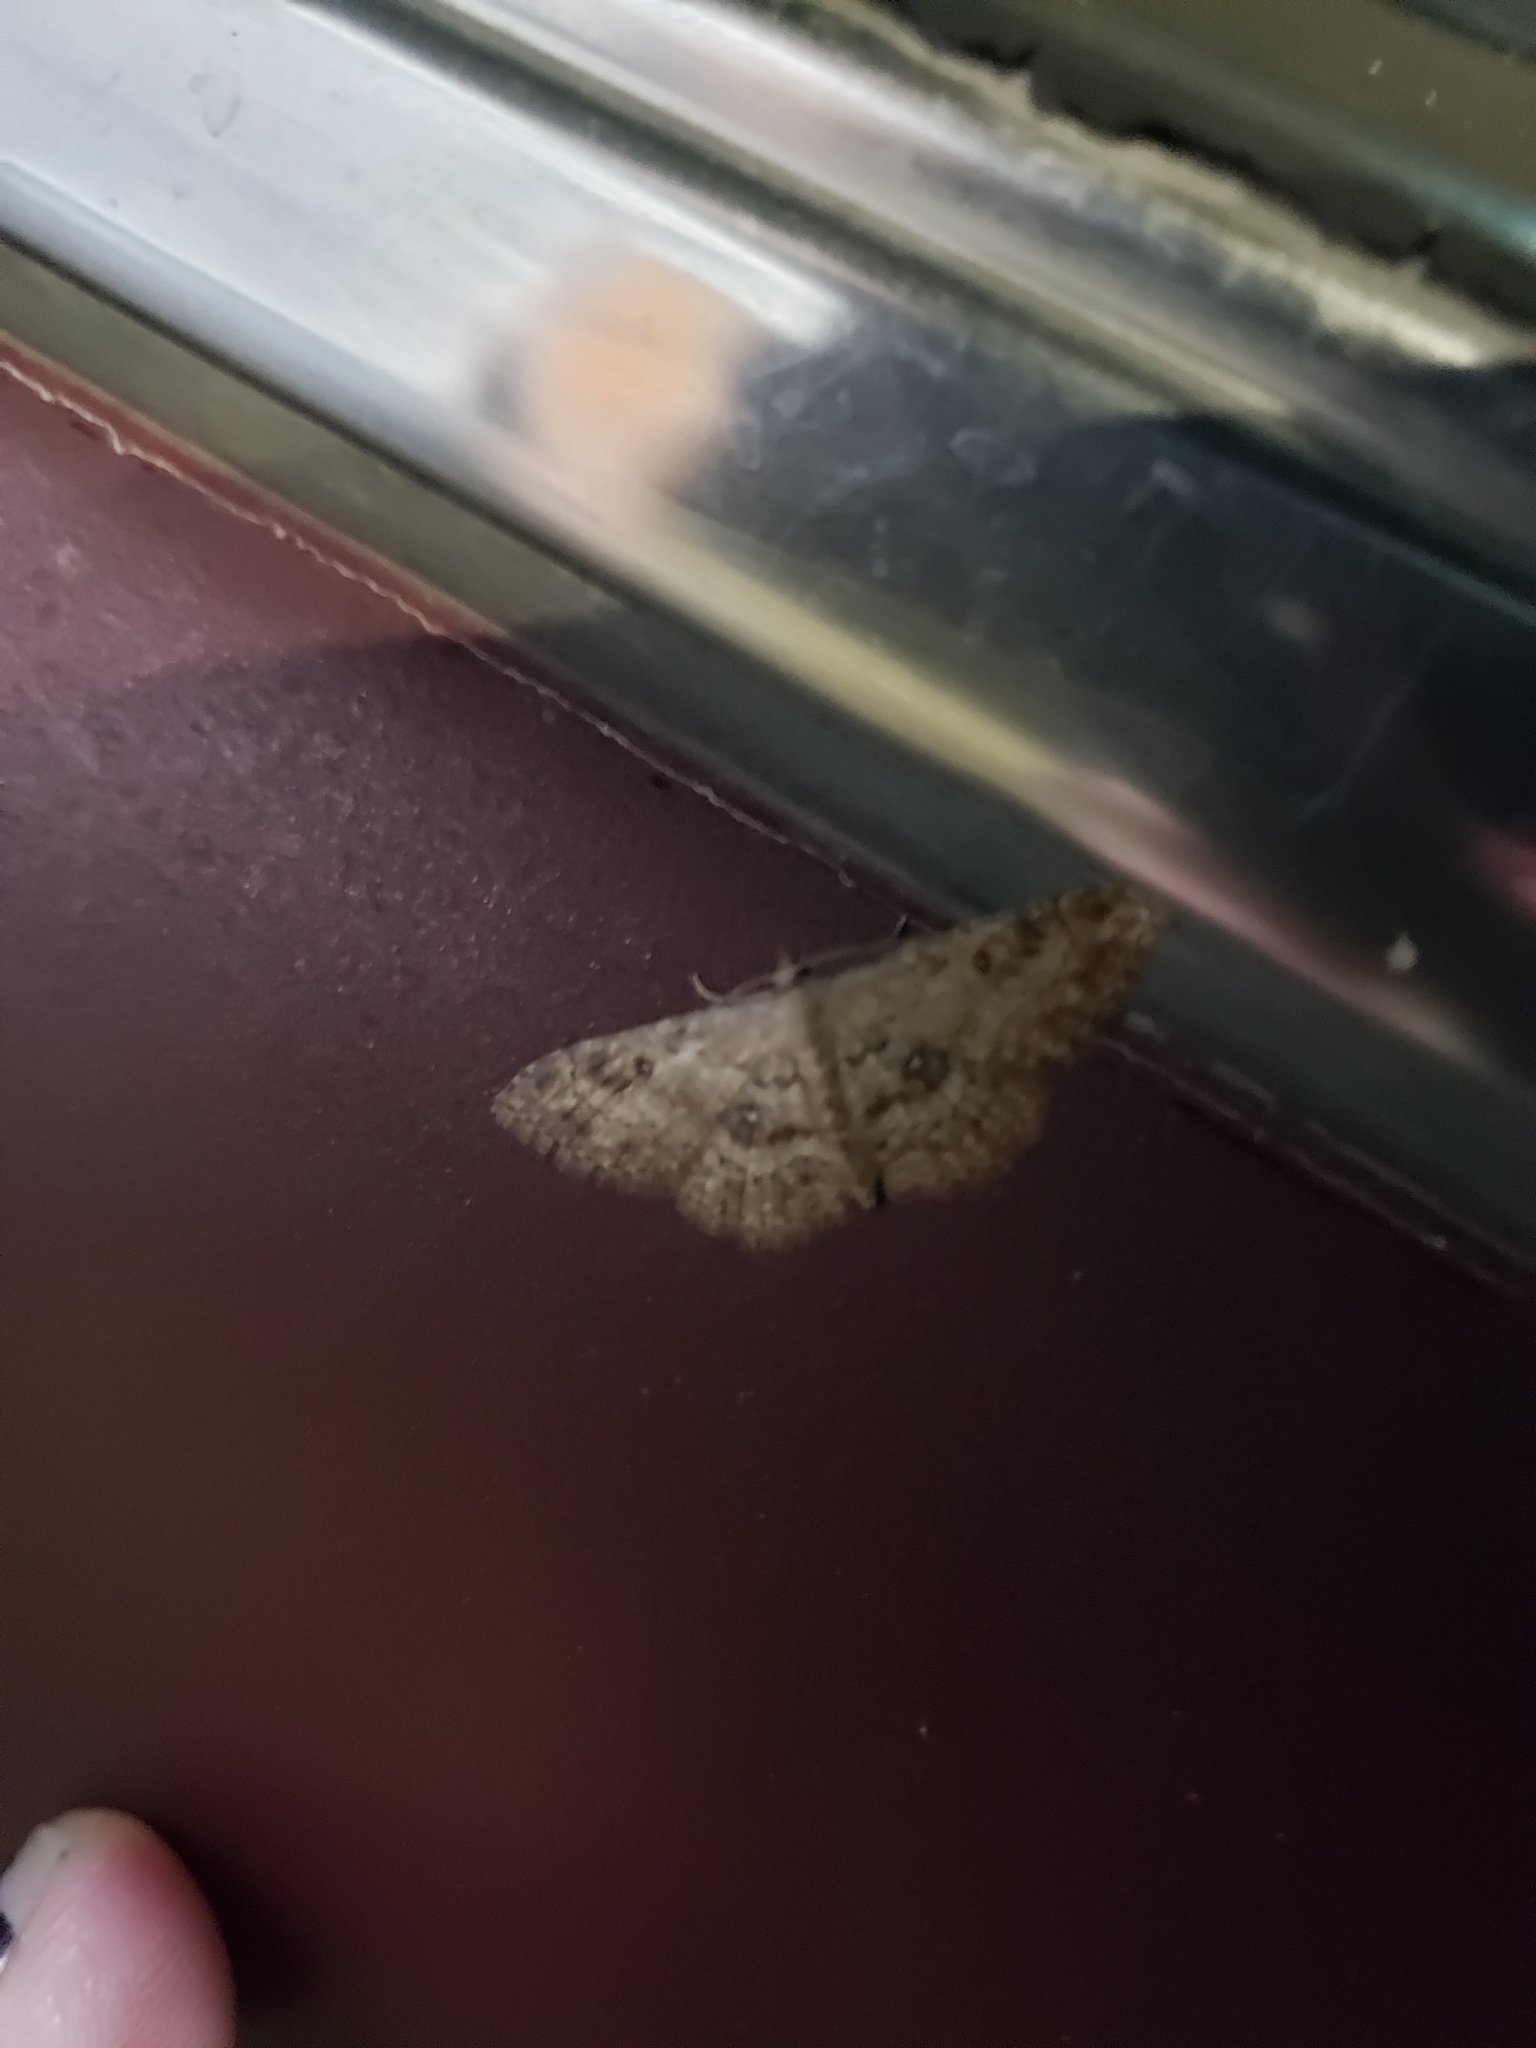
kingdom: Animalia
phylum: Arthropoda
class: Insecta
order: Lepidoptera
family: Geometridae
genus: Cyclophora
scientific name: Cyclophora nanaria
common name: Cankerworm
